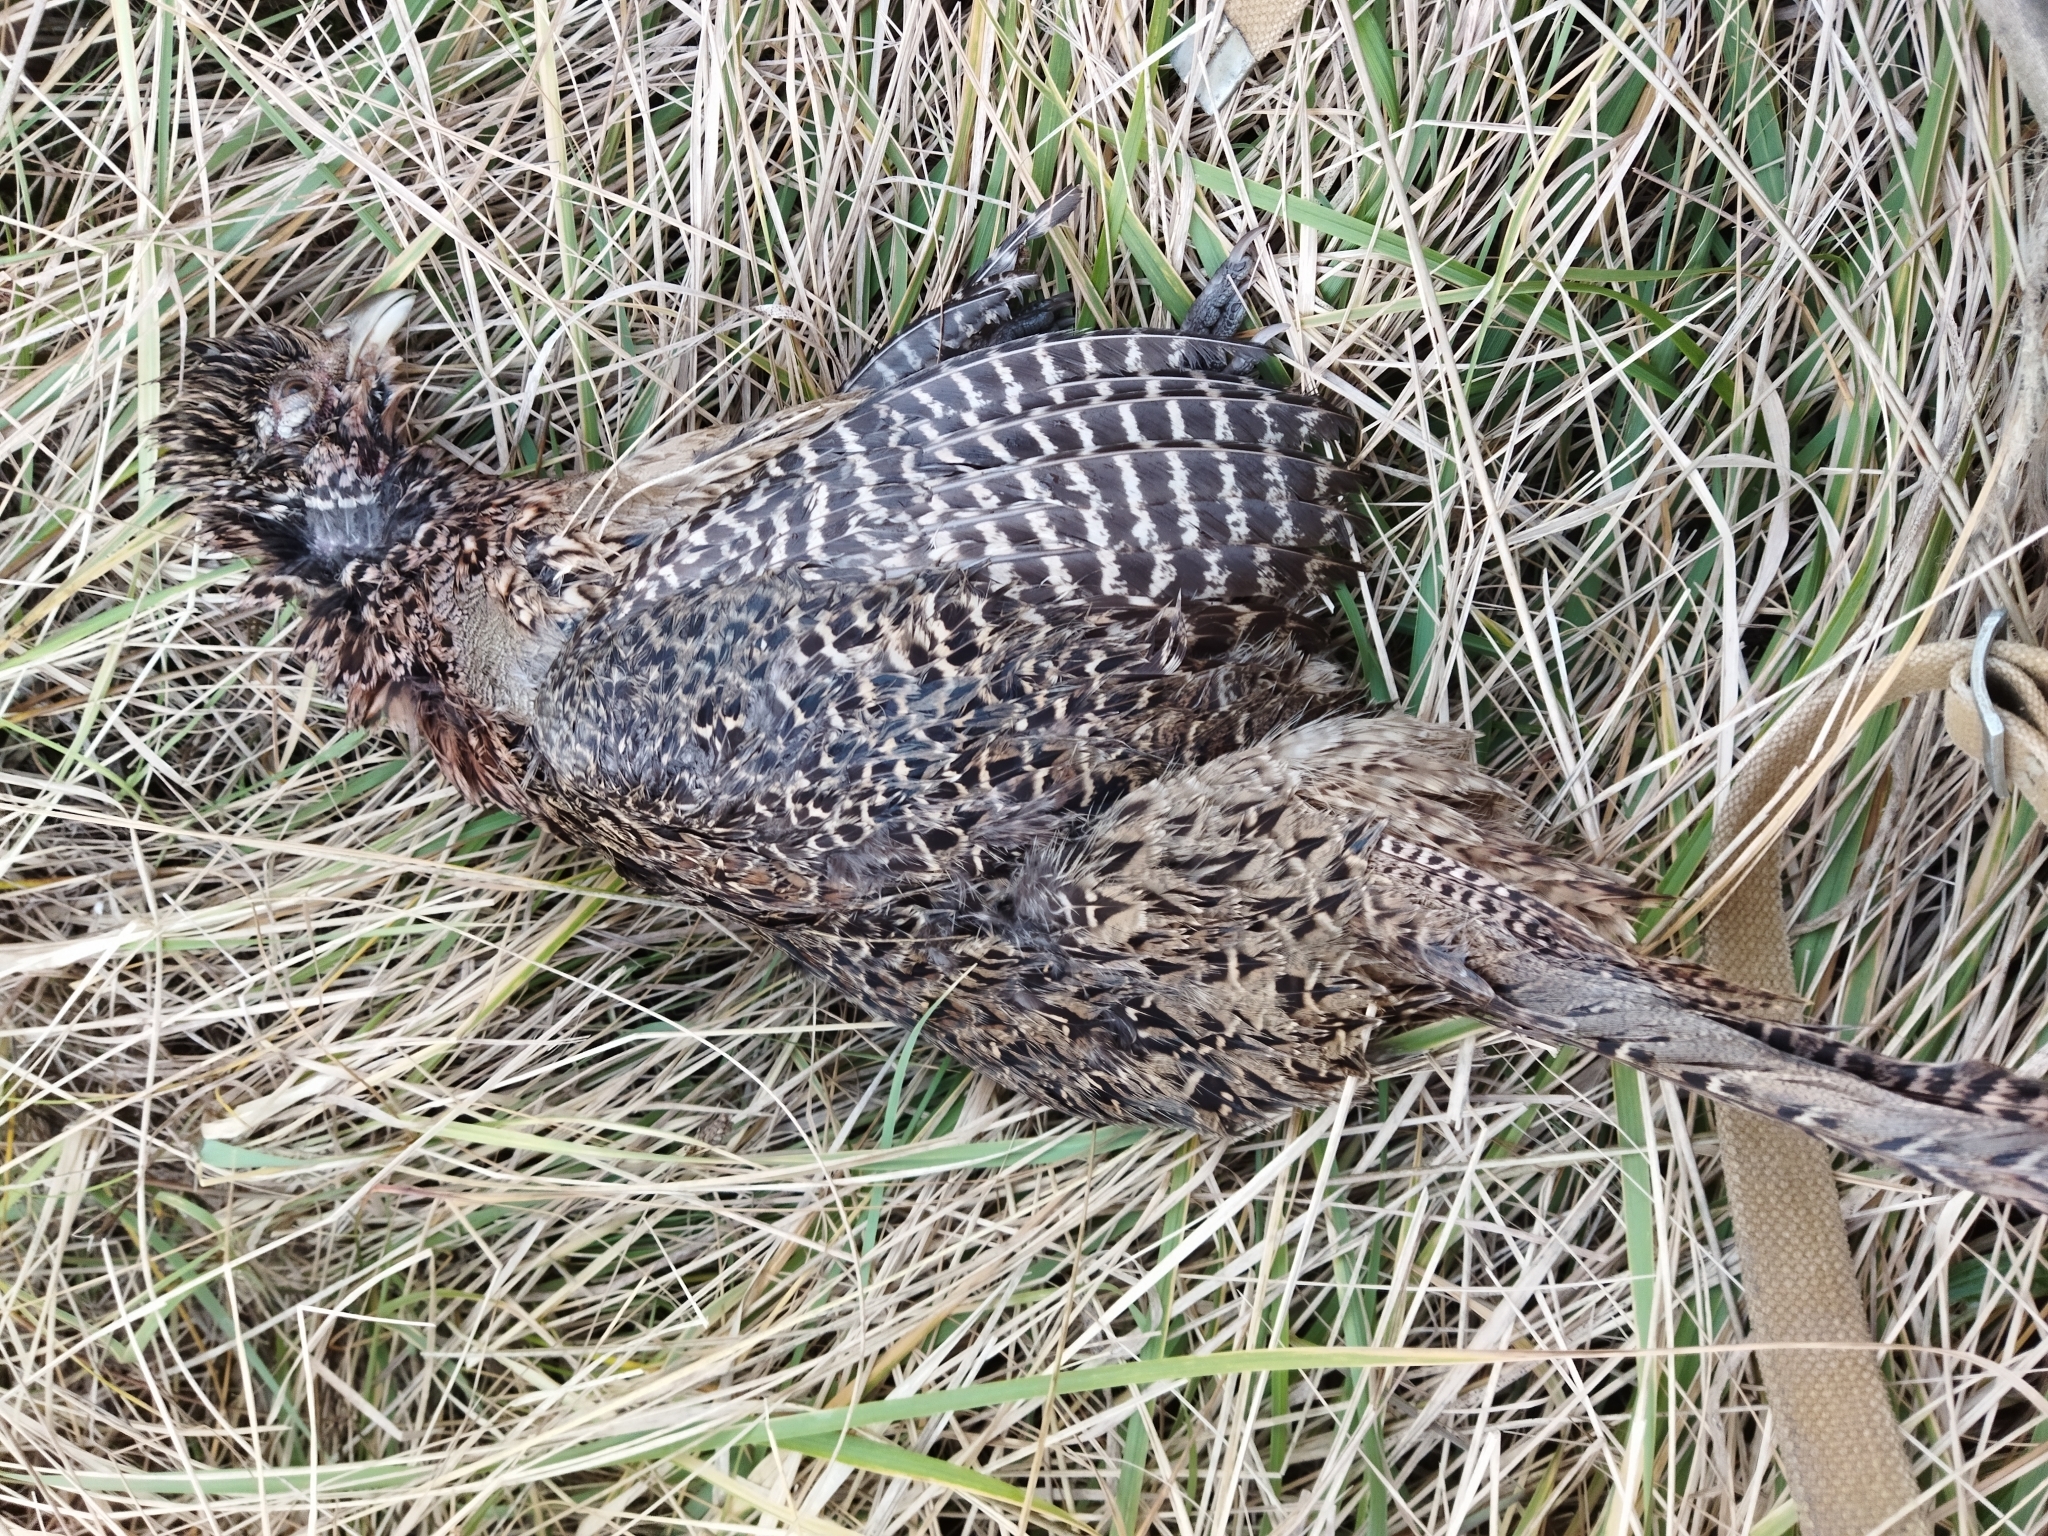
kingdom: Animalia
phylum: Chordata
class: Aves
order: Galliformes
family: Phasianidae
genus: Phasianus
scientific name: Phasianus colchicus
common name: Common pheasant
